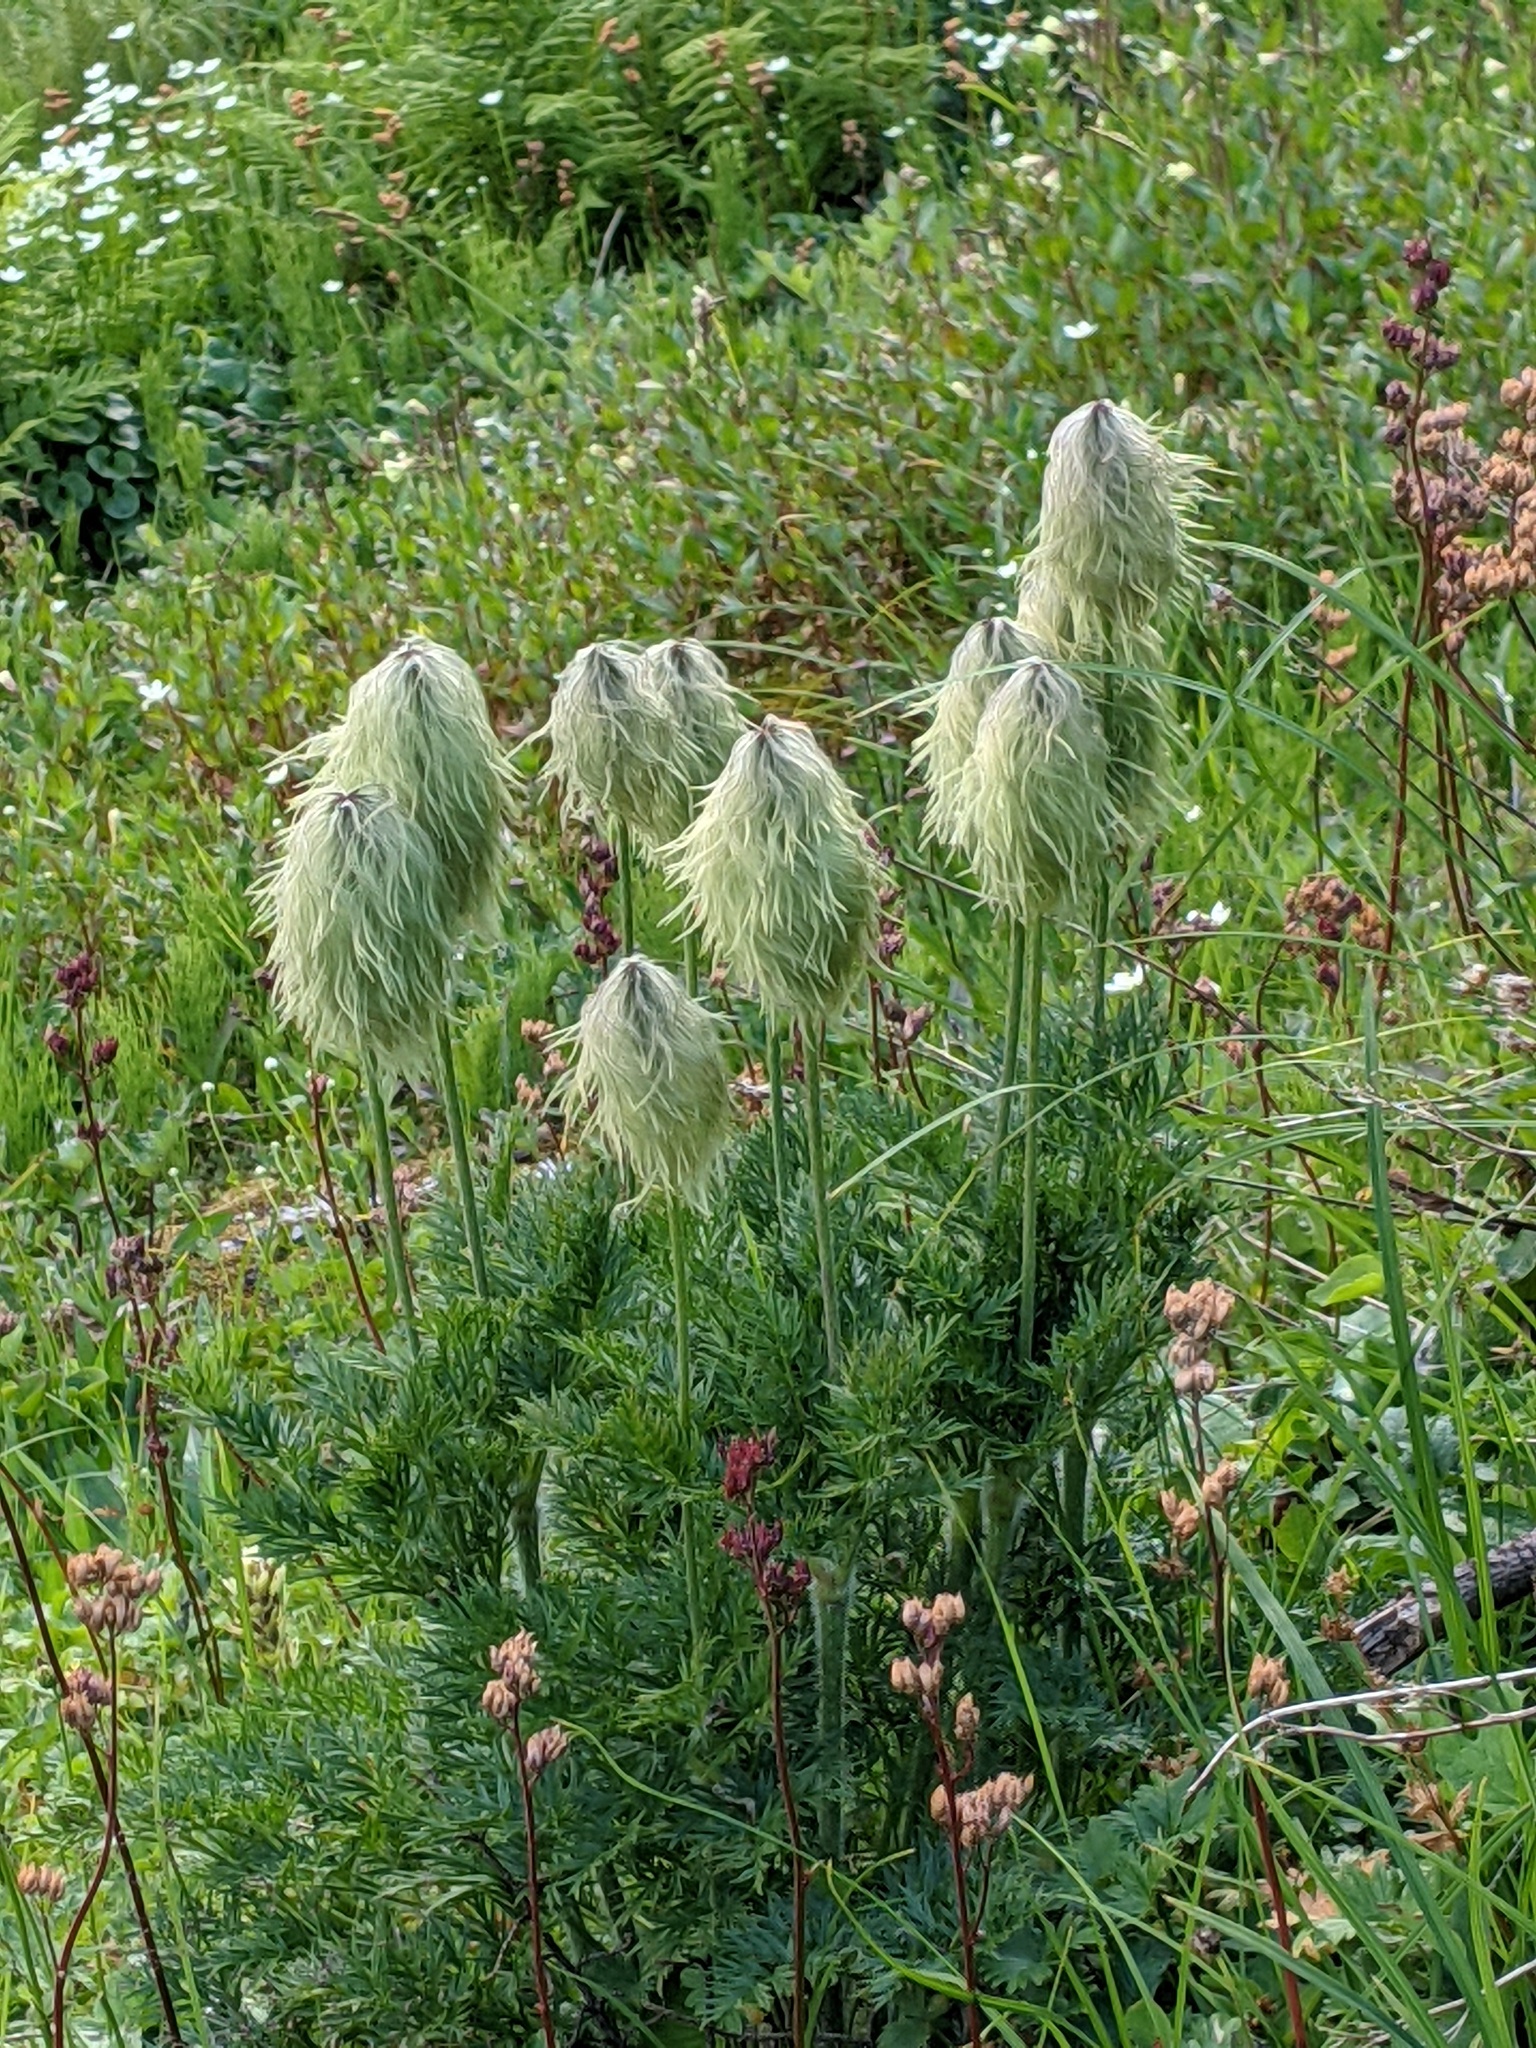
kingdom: Plantae
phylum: Tracheophyta
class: Magnoliopsida
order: Ranunculales
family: Ranunculaceae
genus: Pulsatilla
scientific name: Pulsatilla occidentalis
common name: Mountain pasqueflower
